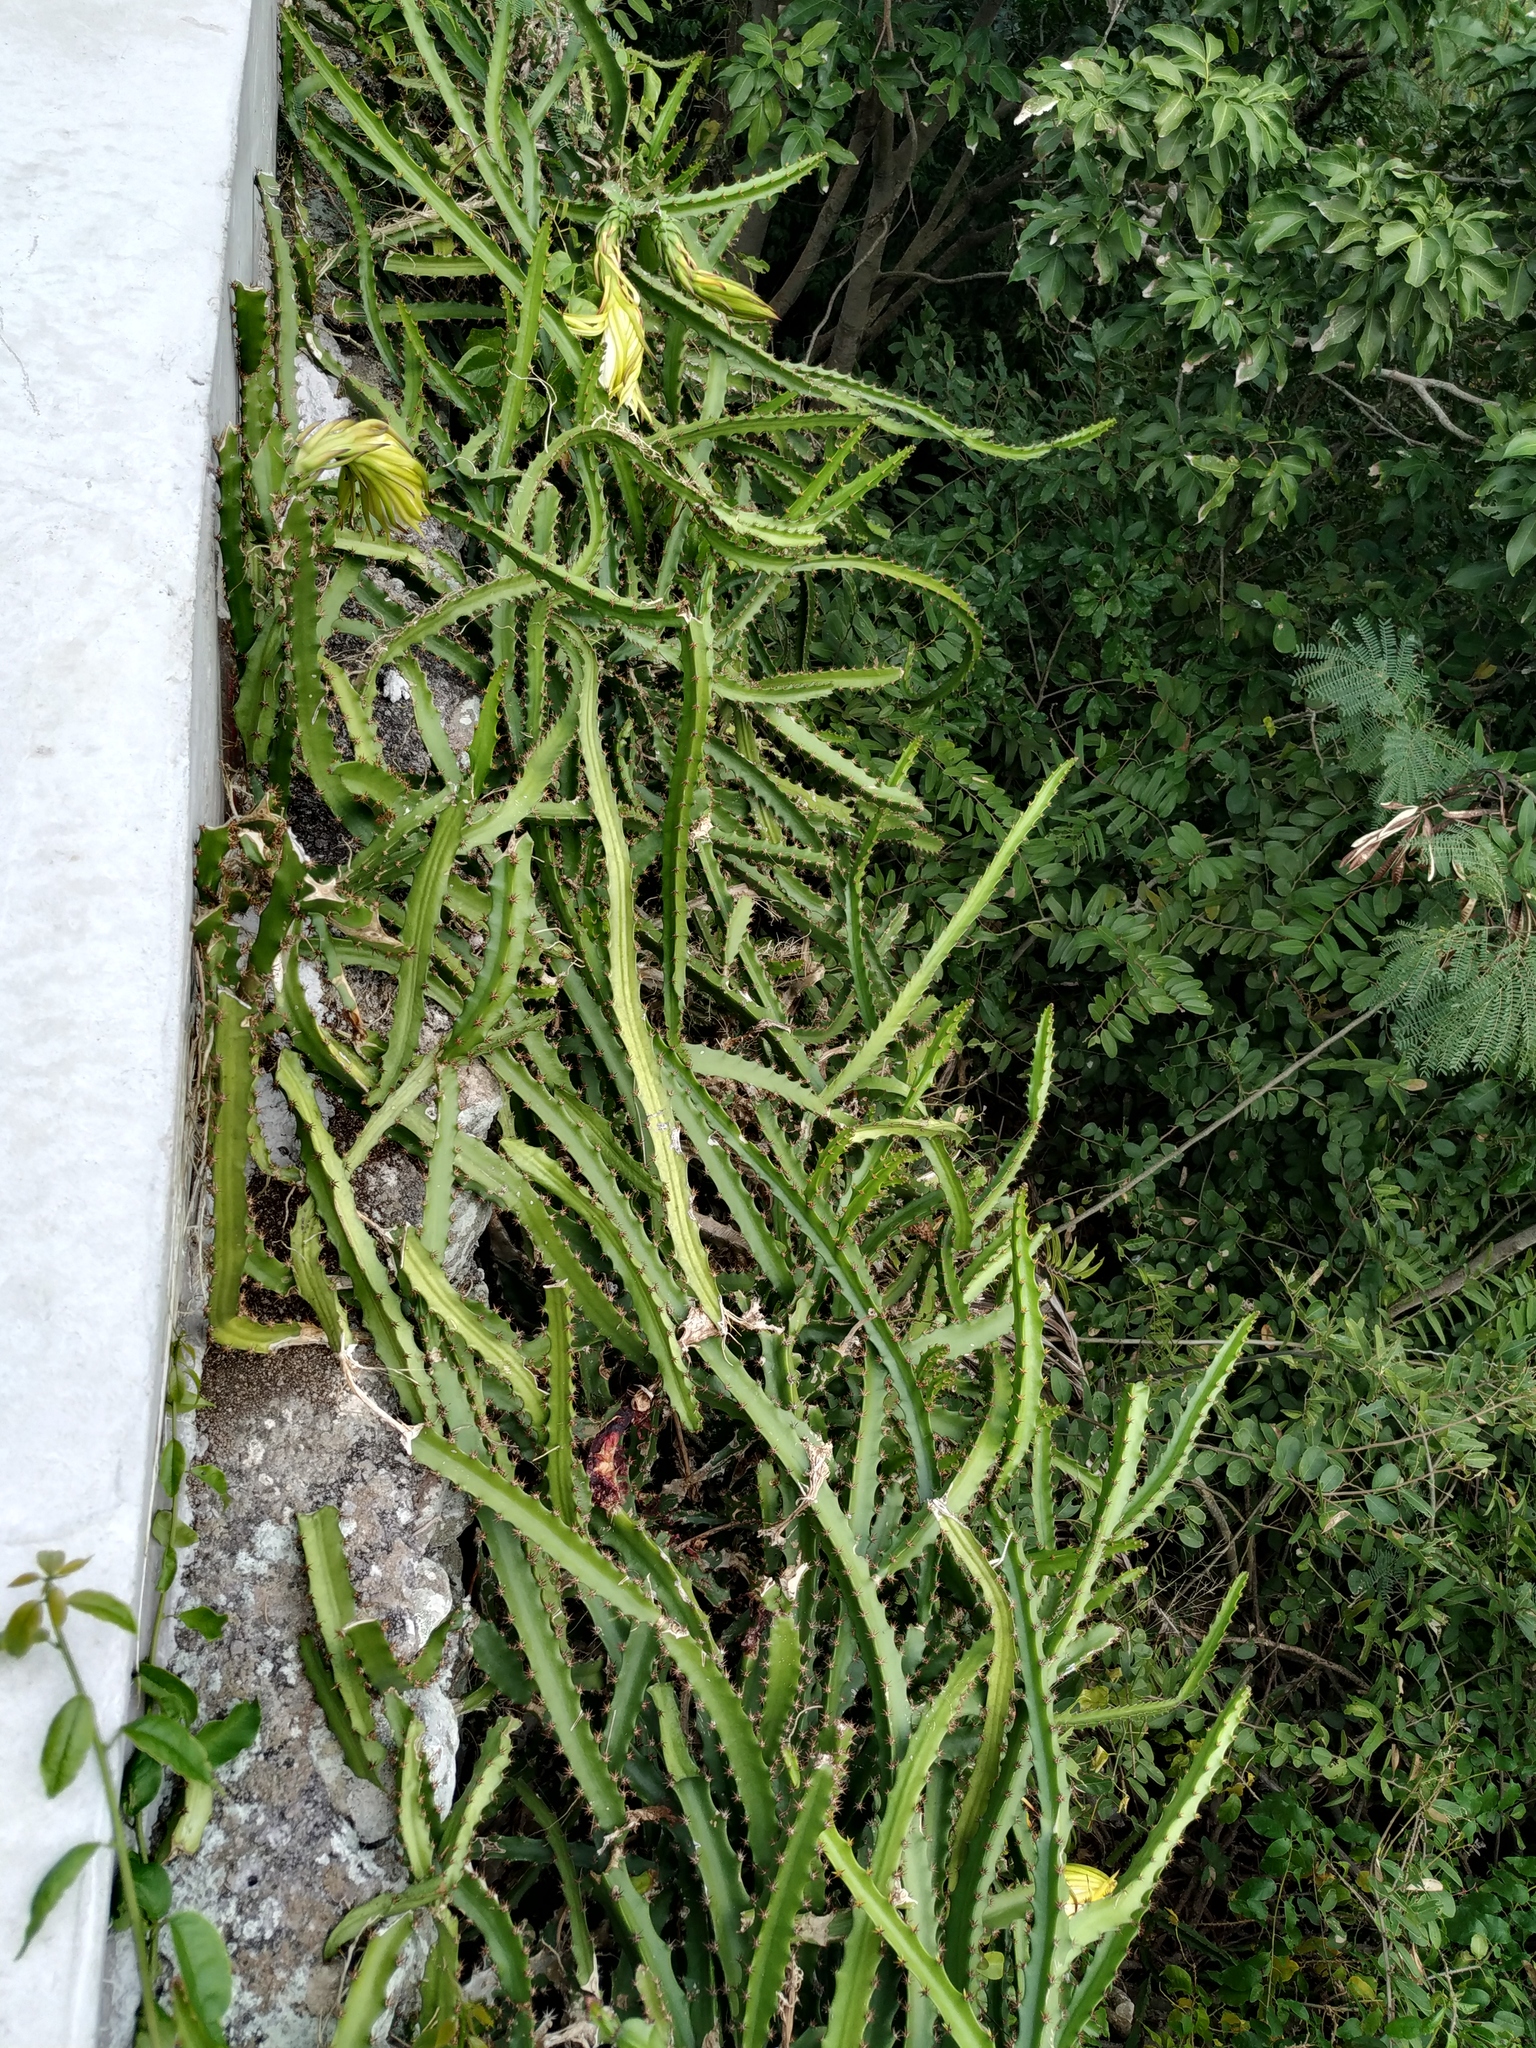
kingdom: Plantae
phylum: Tracheophyta
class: Magnoliopsida
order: Caryophyllales
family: Cactaceae
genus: Selenicereus
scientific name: Selenicereus triangularis
